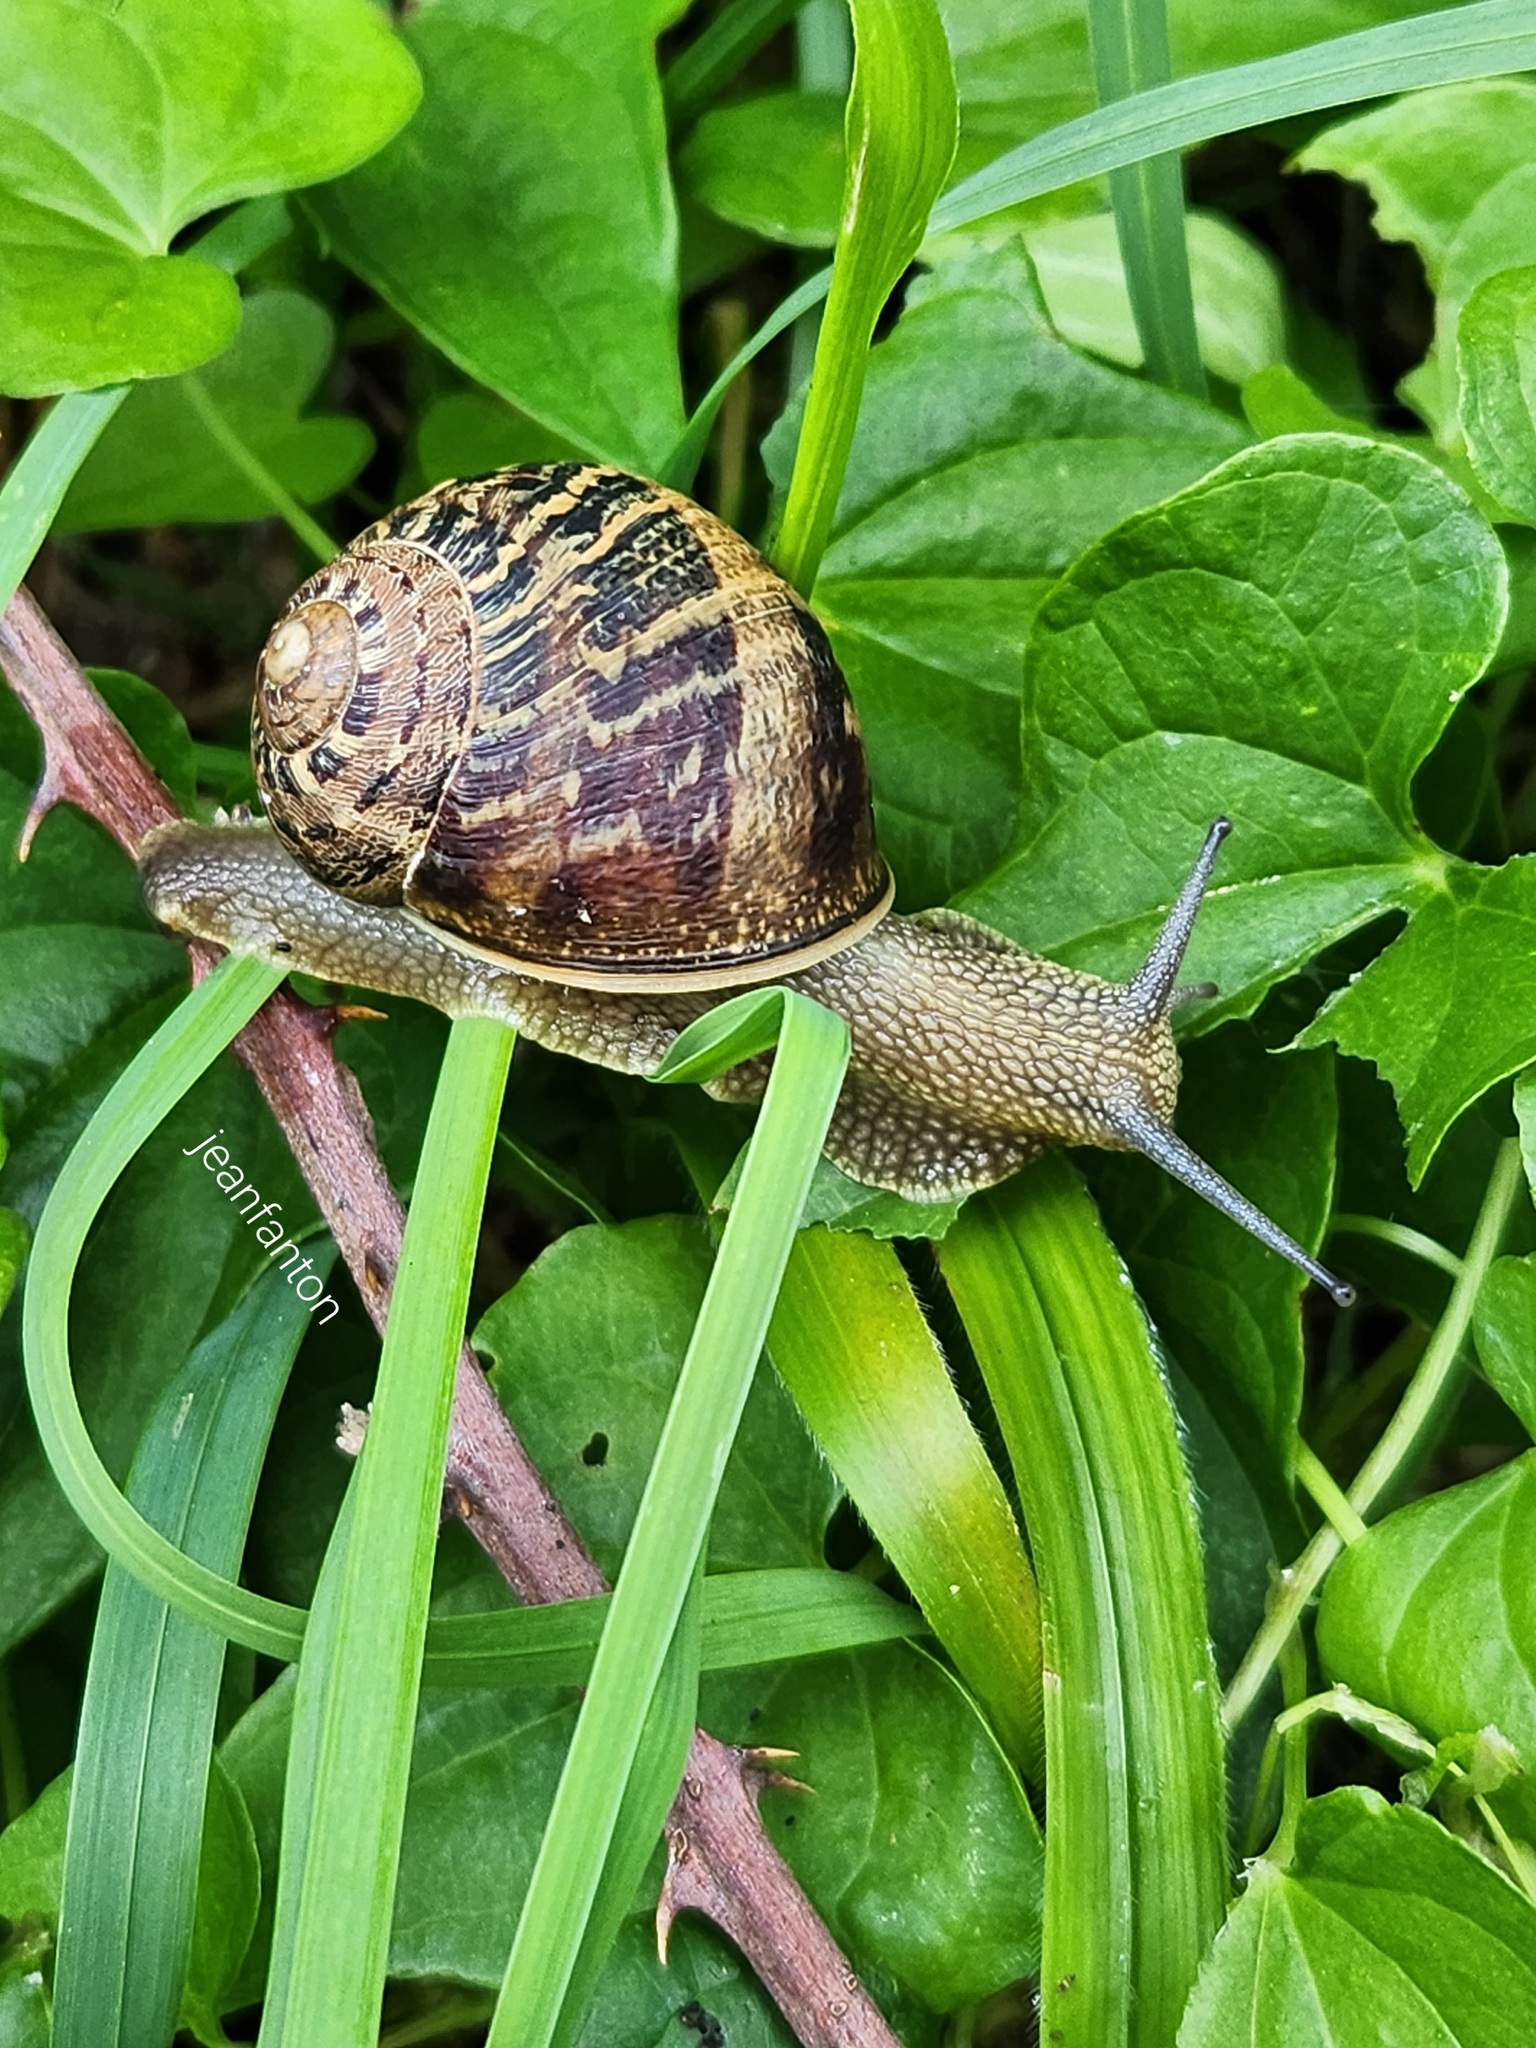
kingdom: Animalia
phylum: Mollusca
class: Gastropoda
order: Stylommatophora
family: Helicidae
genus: Cornu
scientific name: Cornu aspersum
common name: Brown garden snail
